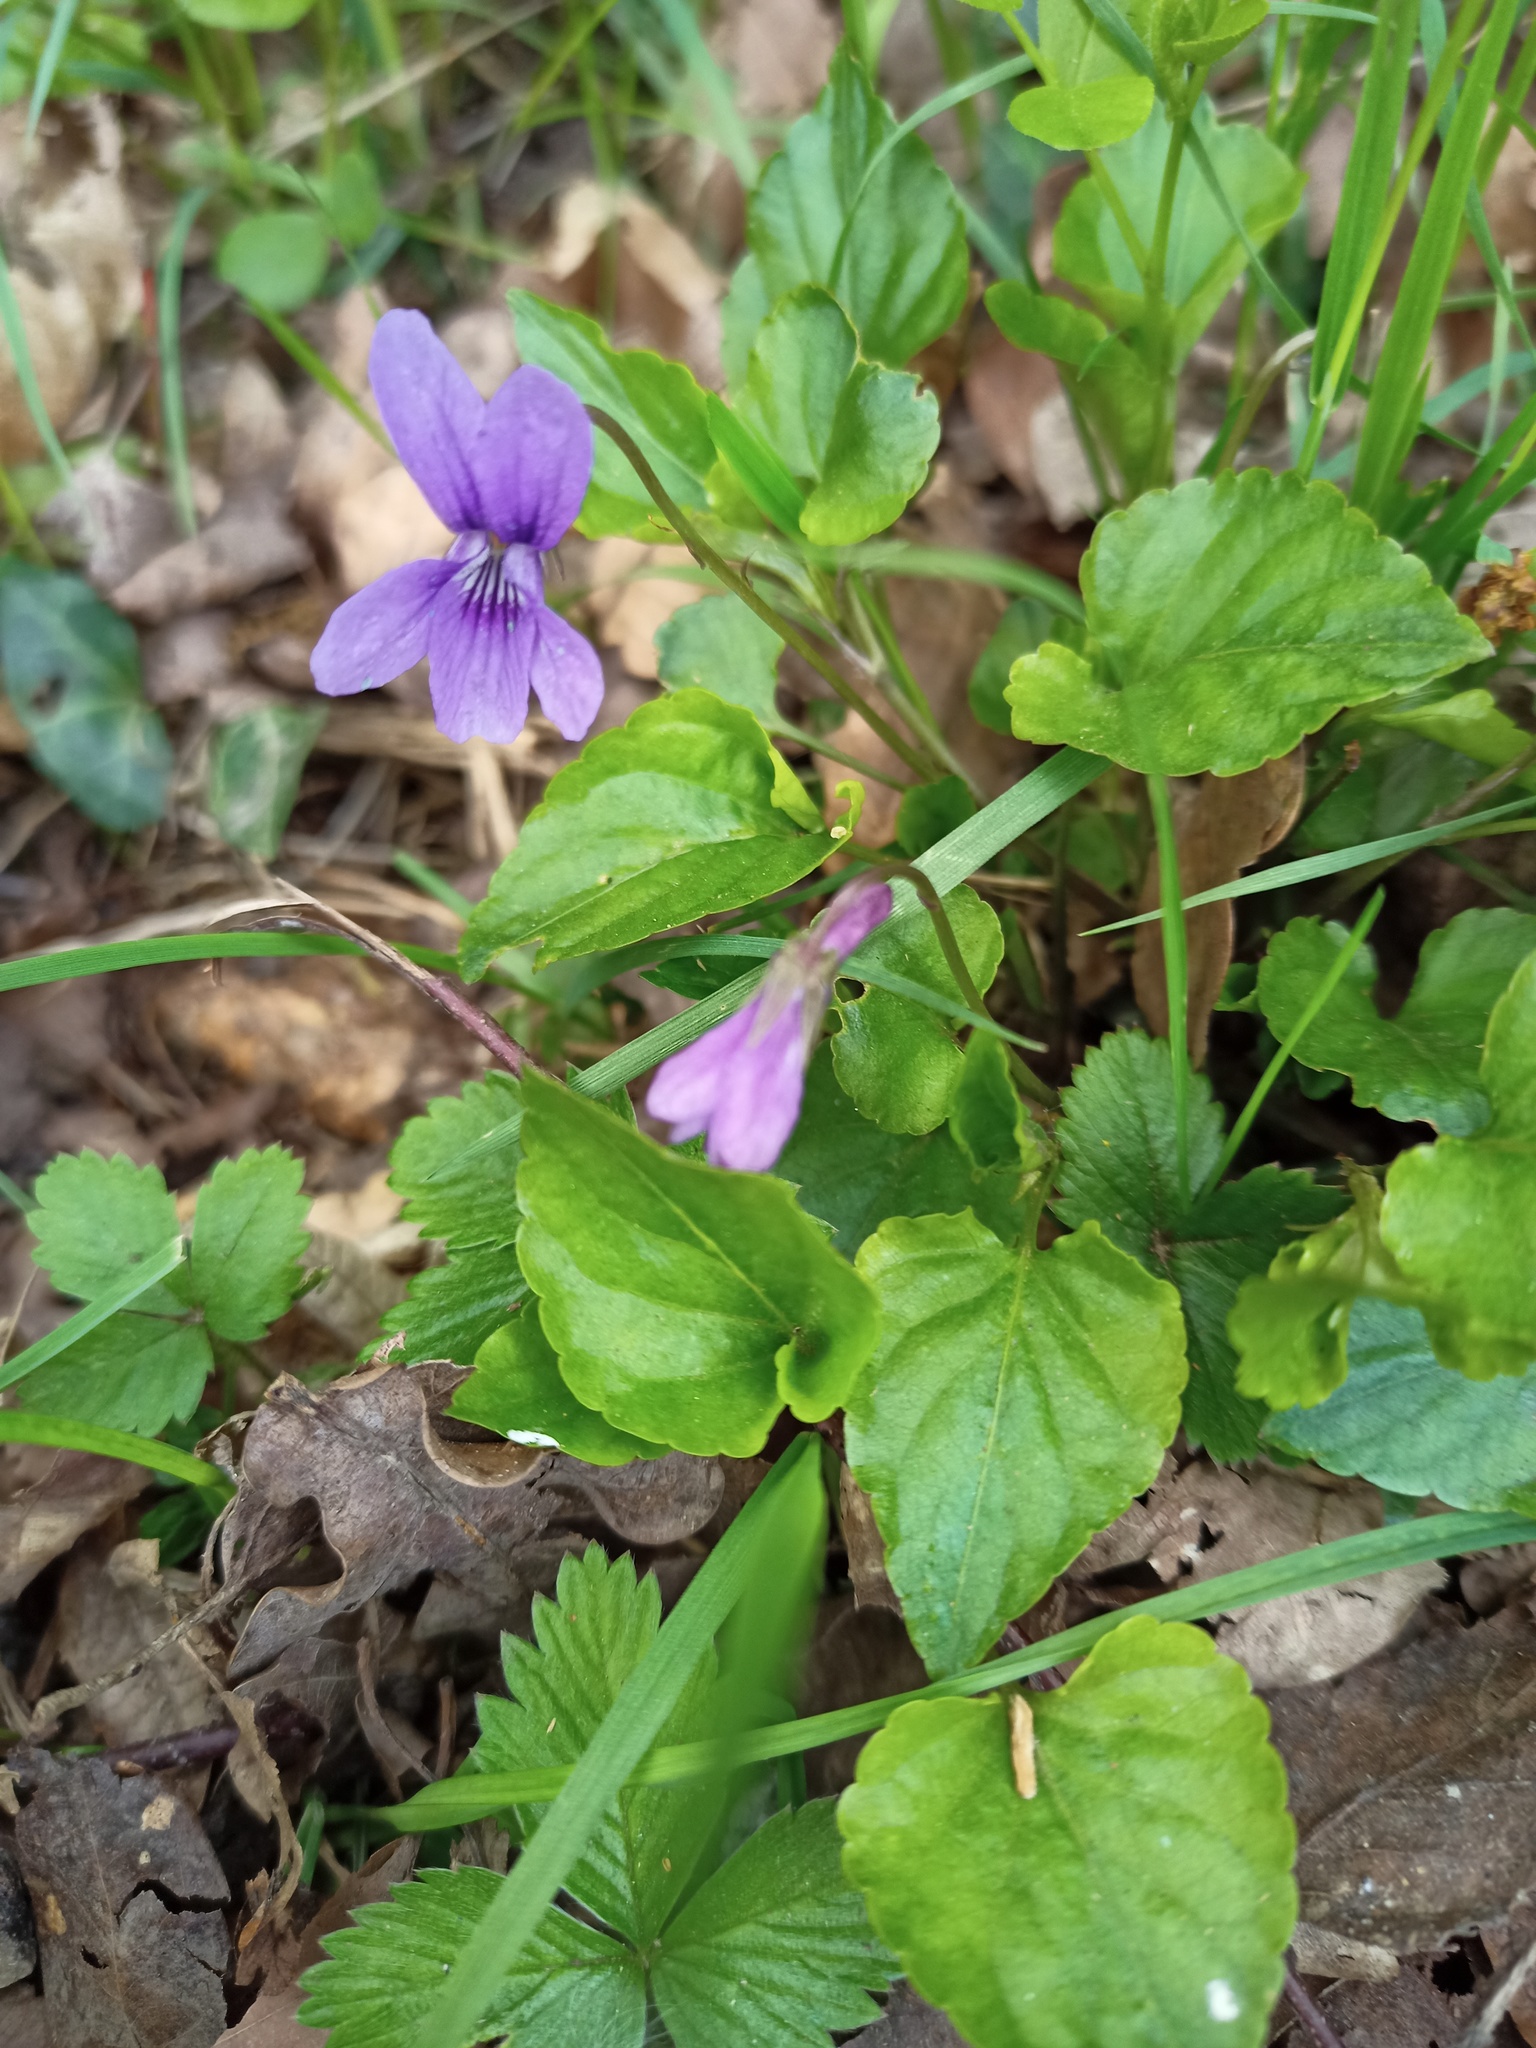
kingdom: Plantae
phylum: Tracheophyta
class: Magnoliopsida
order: Malpighiales
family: Violaceae
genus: Viola
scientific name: Viola reichenbachiana
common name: Early dog-violet
